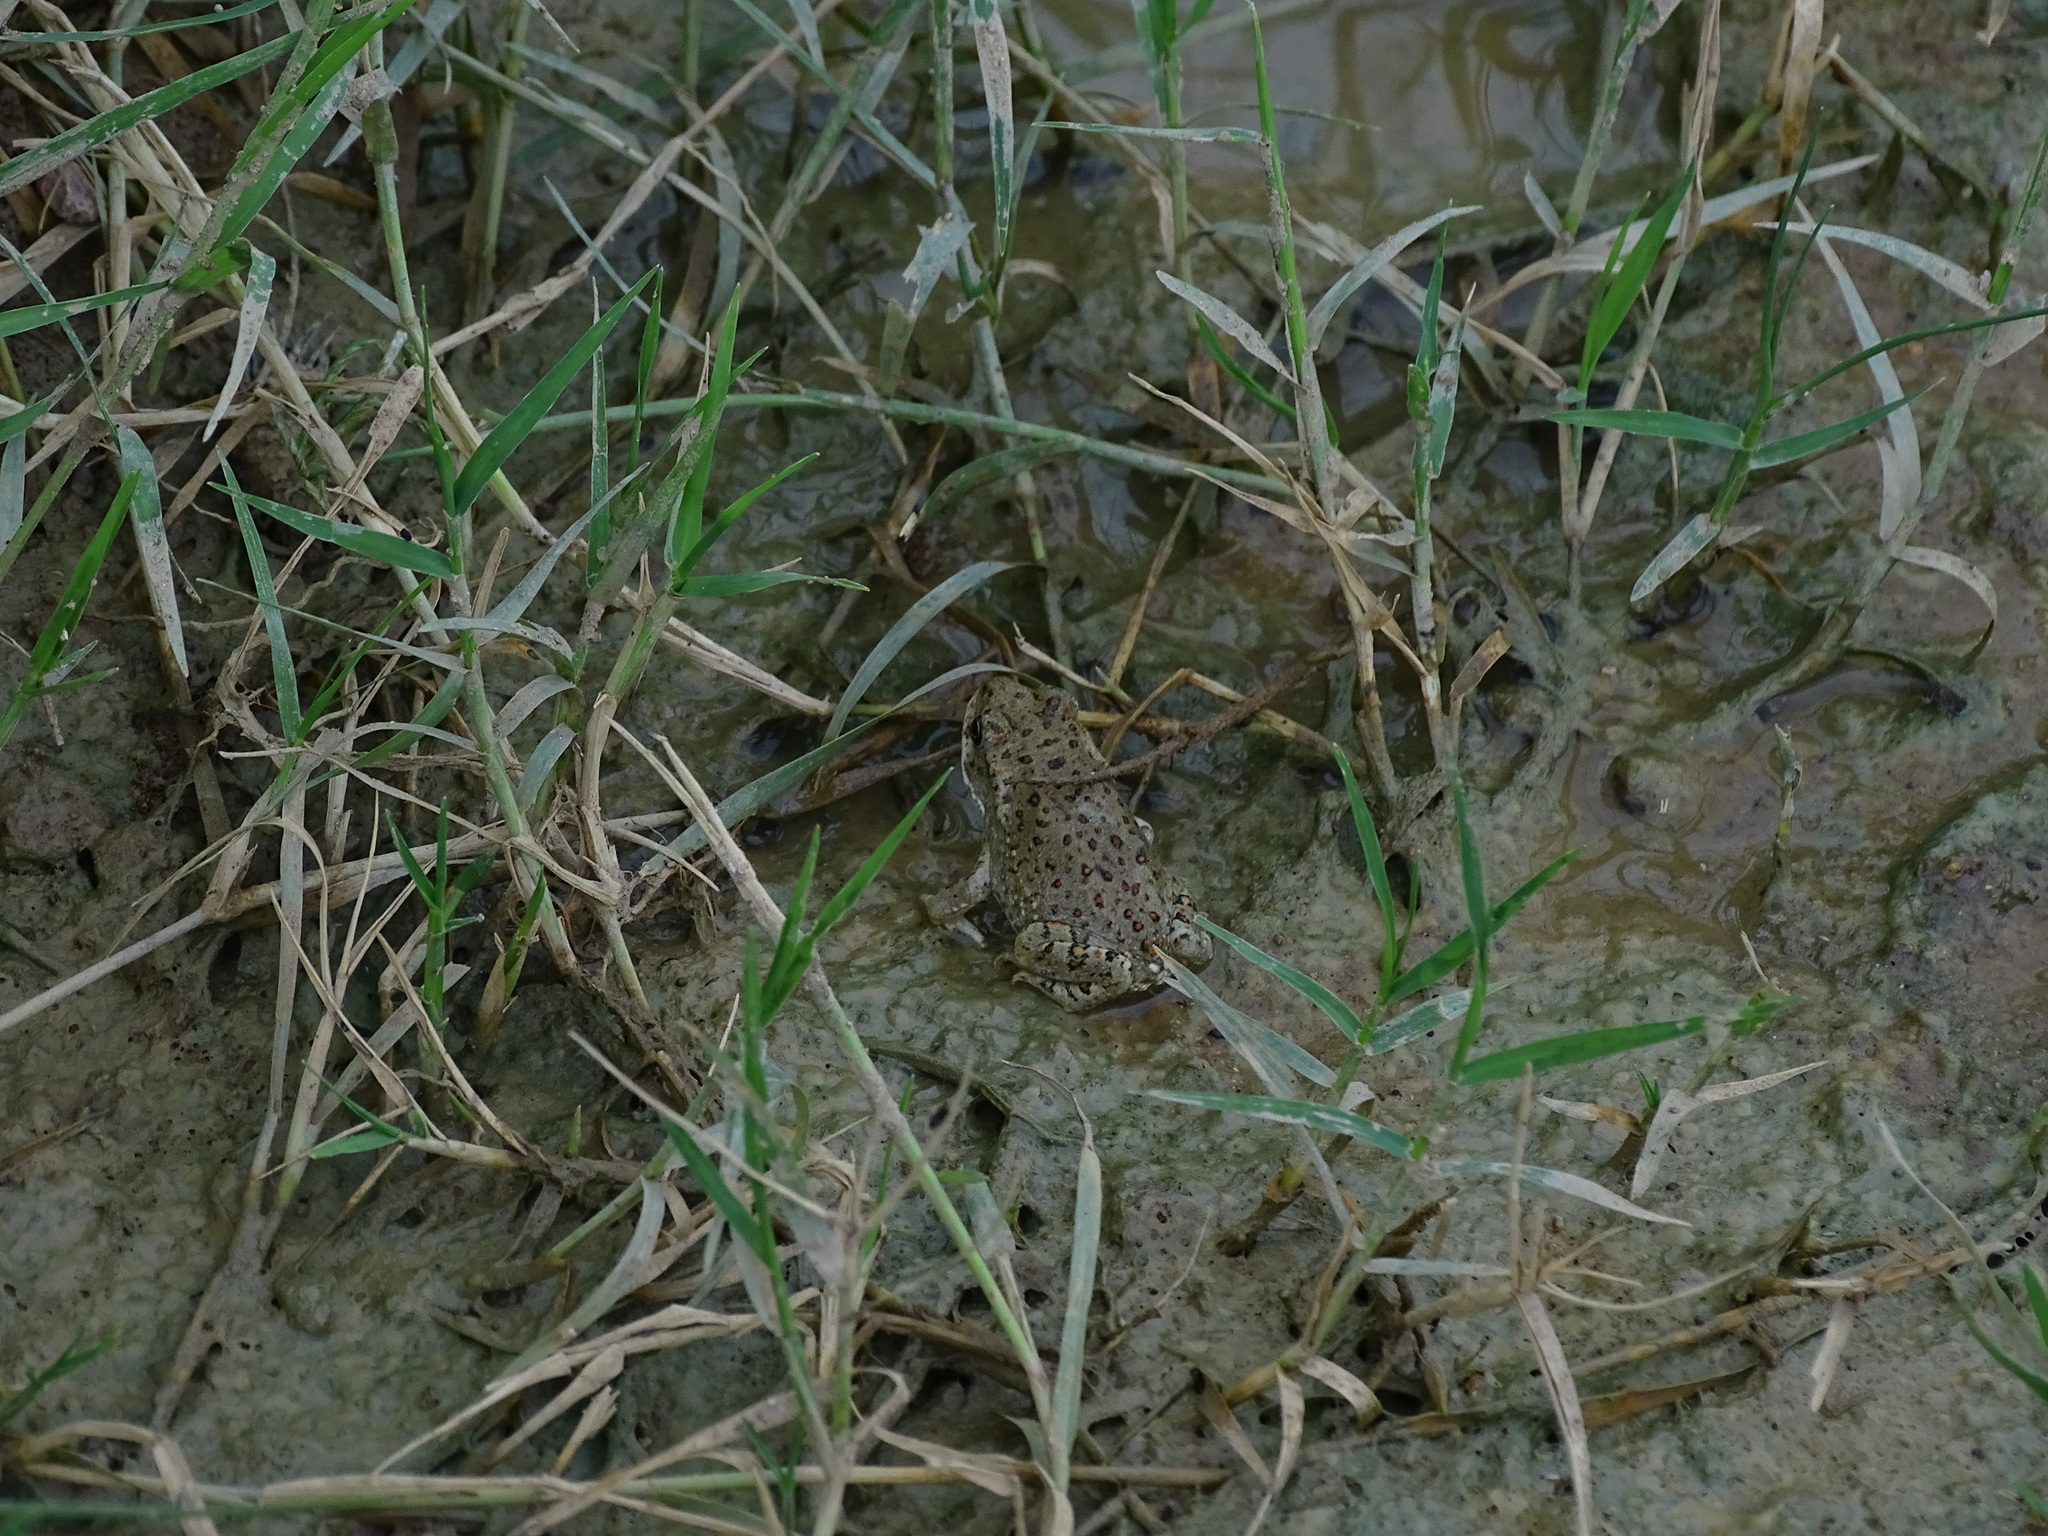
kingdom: Animalia
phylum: Chordata
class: Amphibia
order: Anura
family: Bufonidae
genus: Anaxyrus
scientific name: Anaxyrus punctatus
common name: Red-spotted toad
